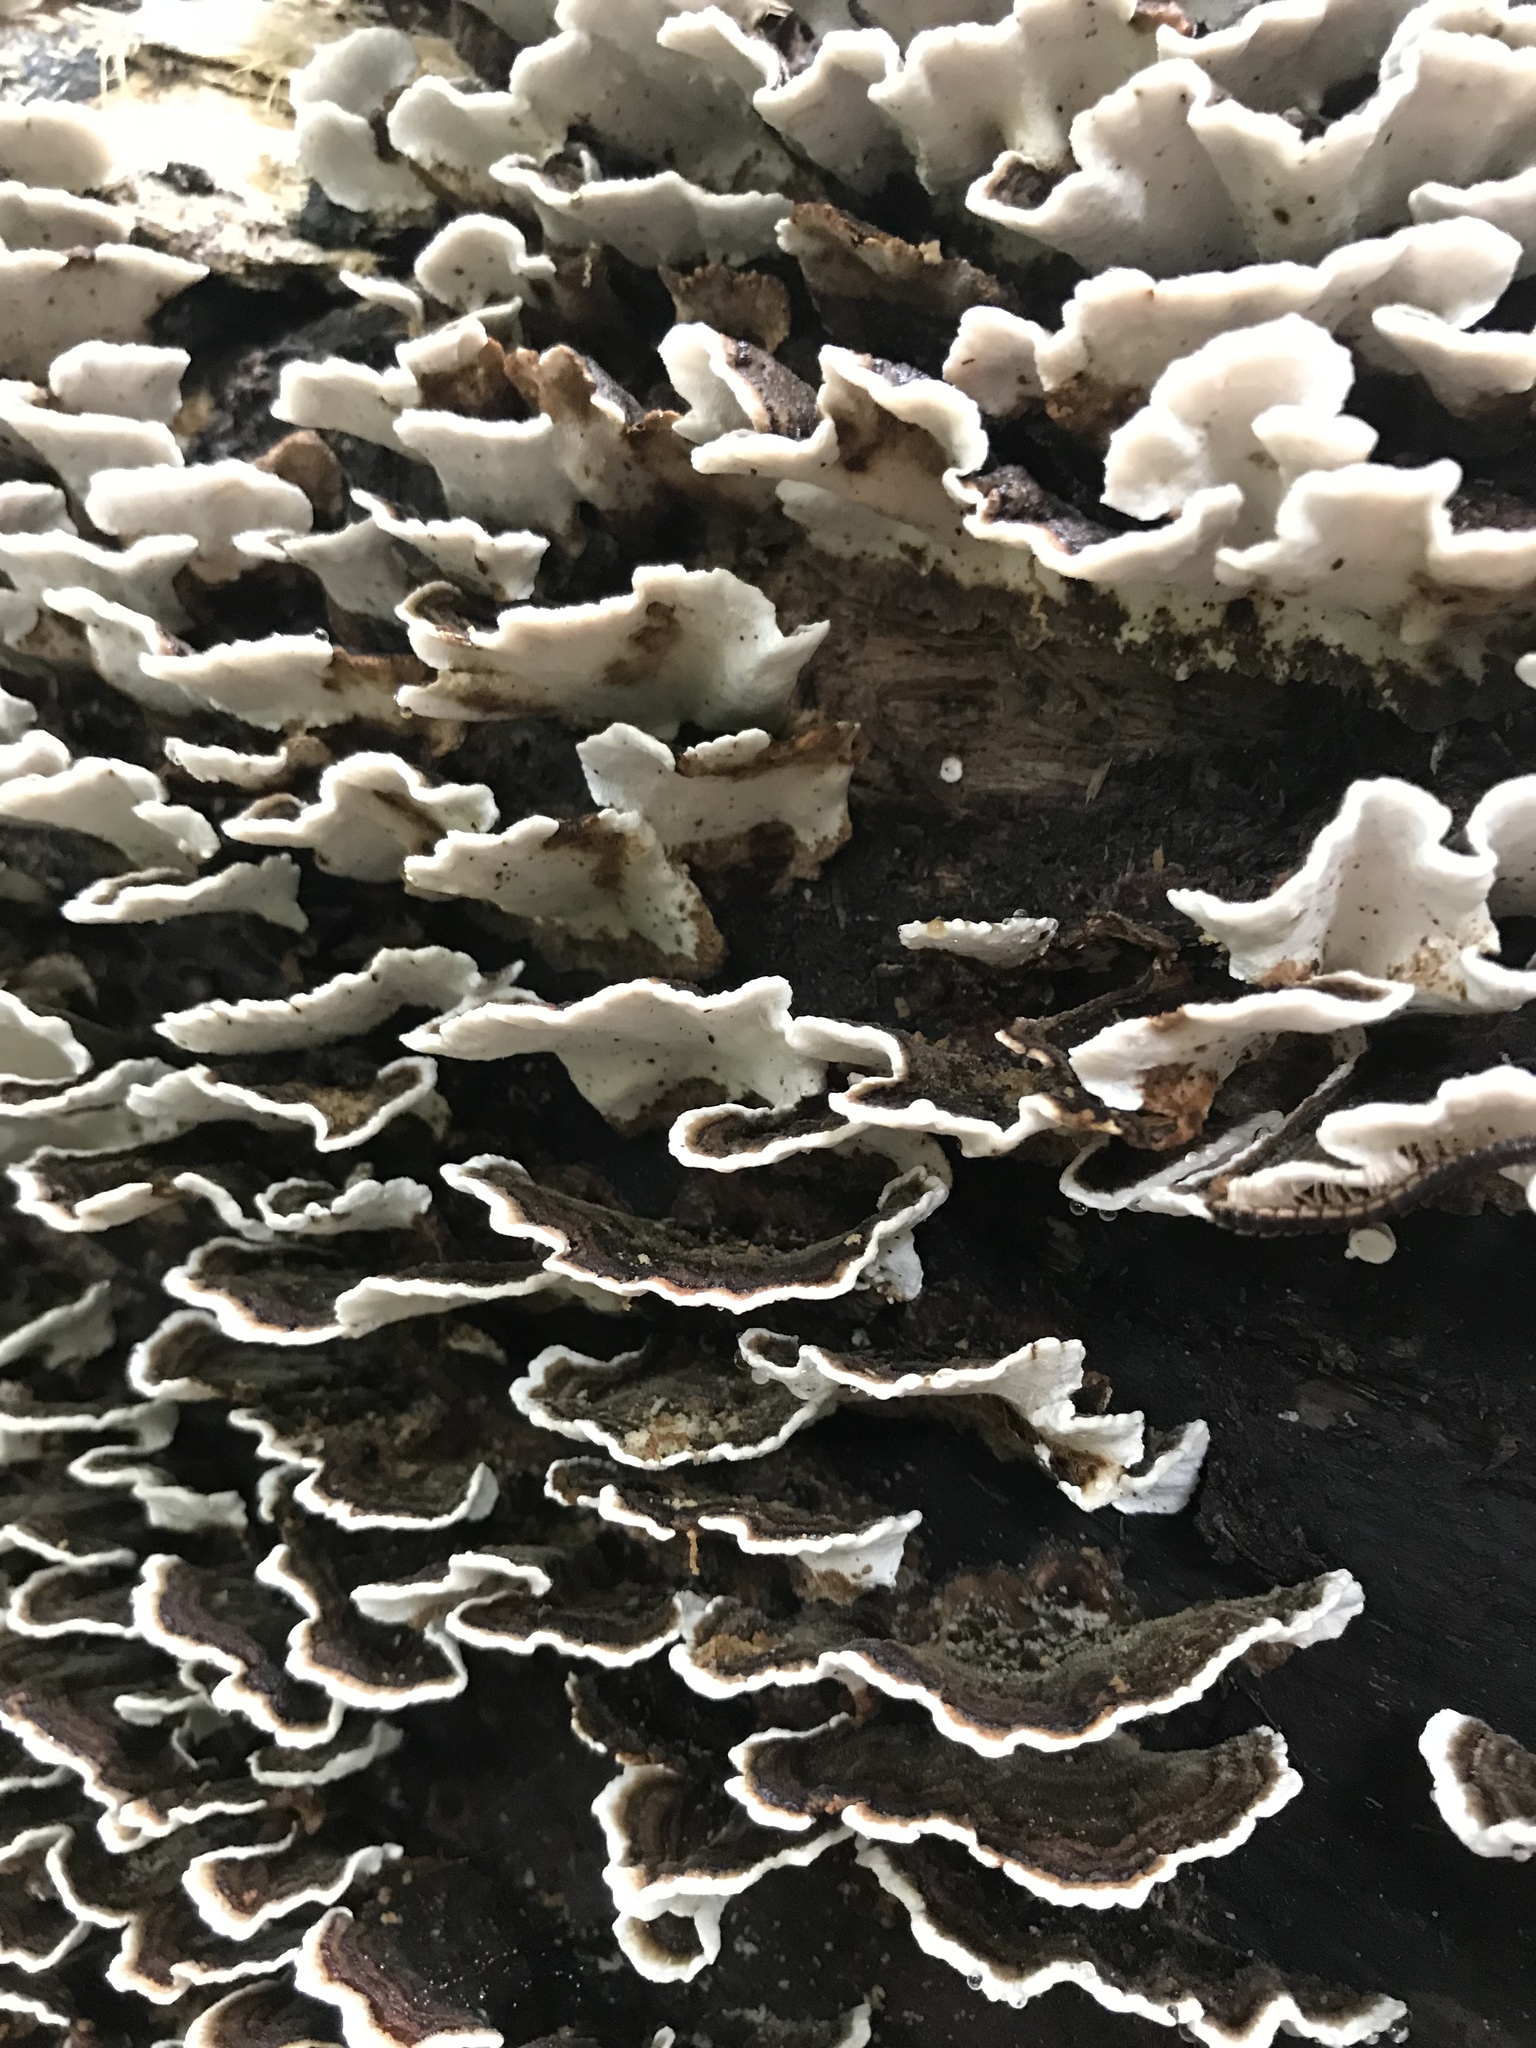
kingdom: Fungi
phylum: Basidiomycota
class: Agaricomycetes
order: Polyporales
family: Polyporaceae
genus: Trametes
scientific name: Trametes versicolor
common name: Turkeytail
